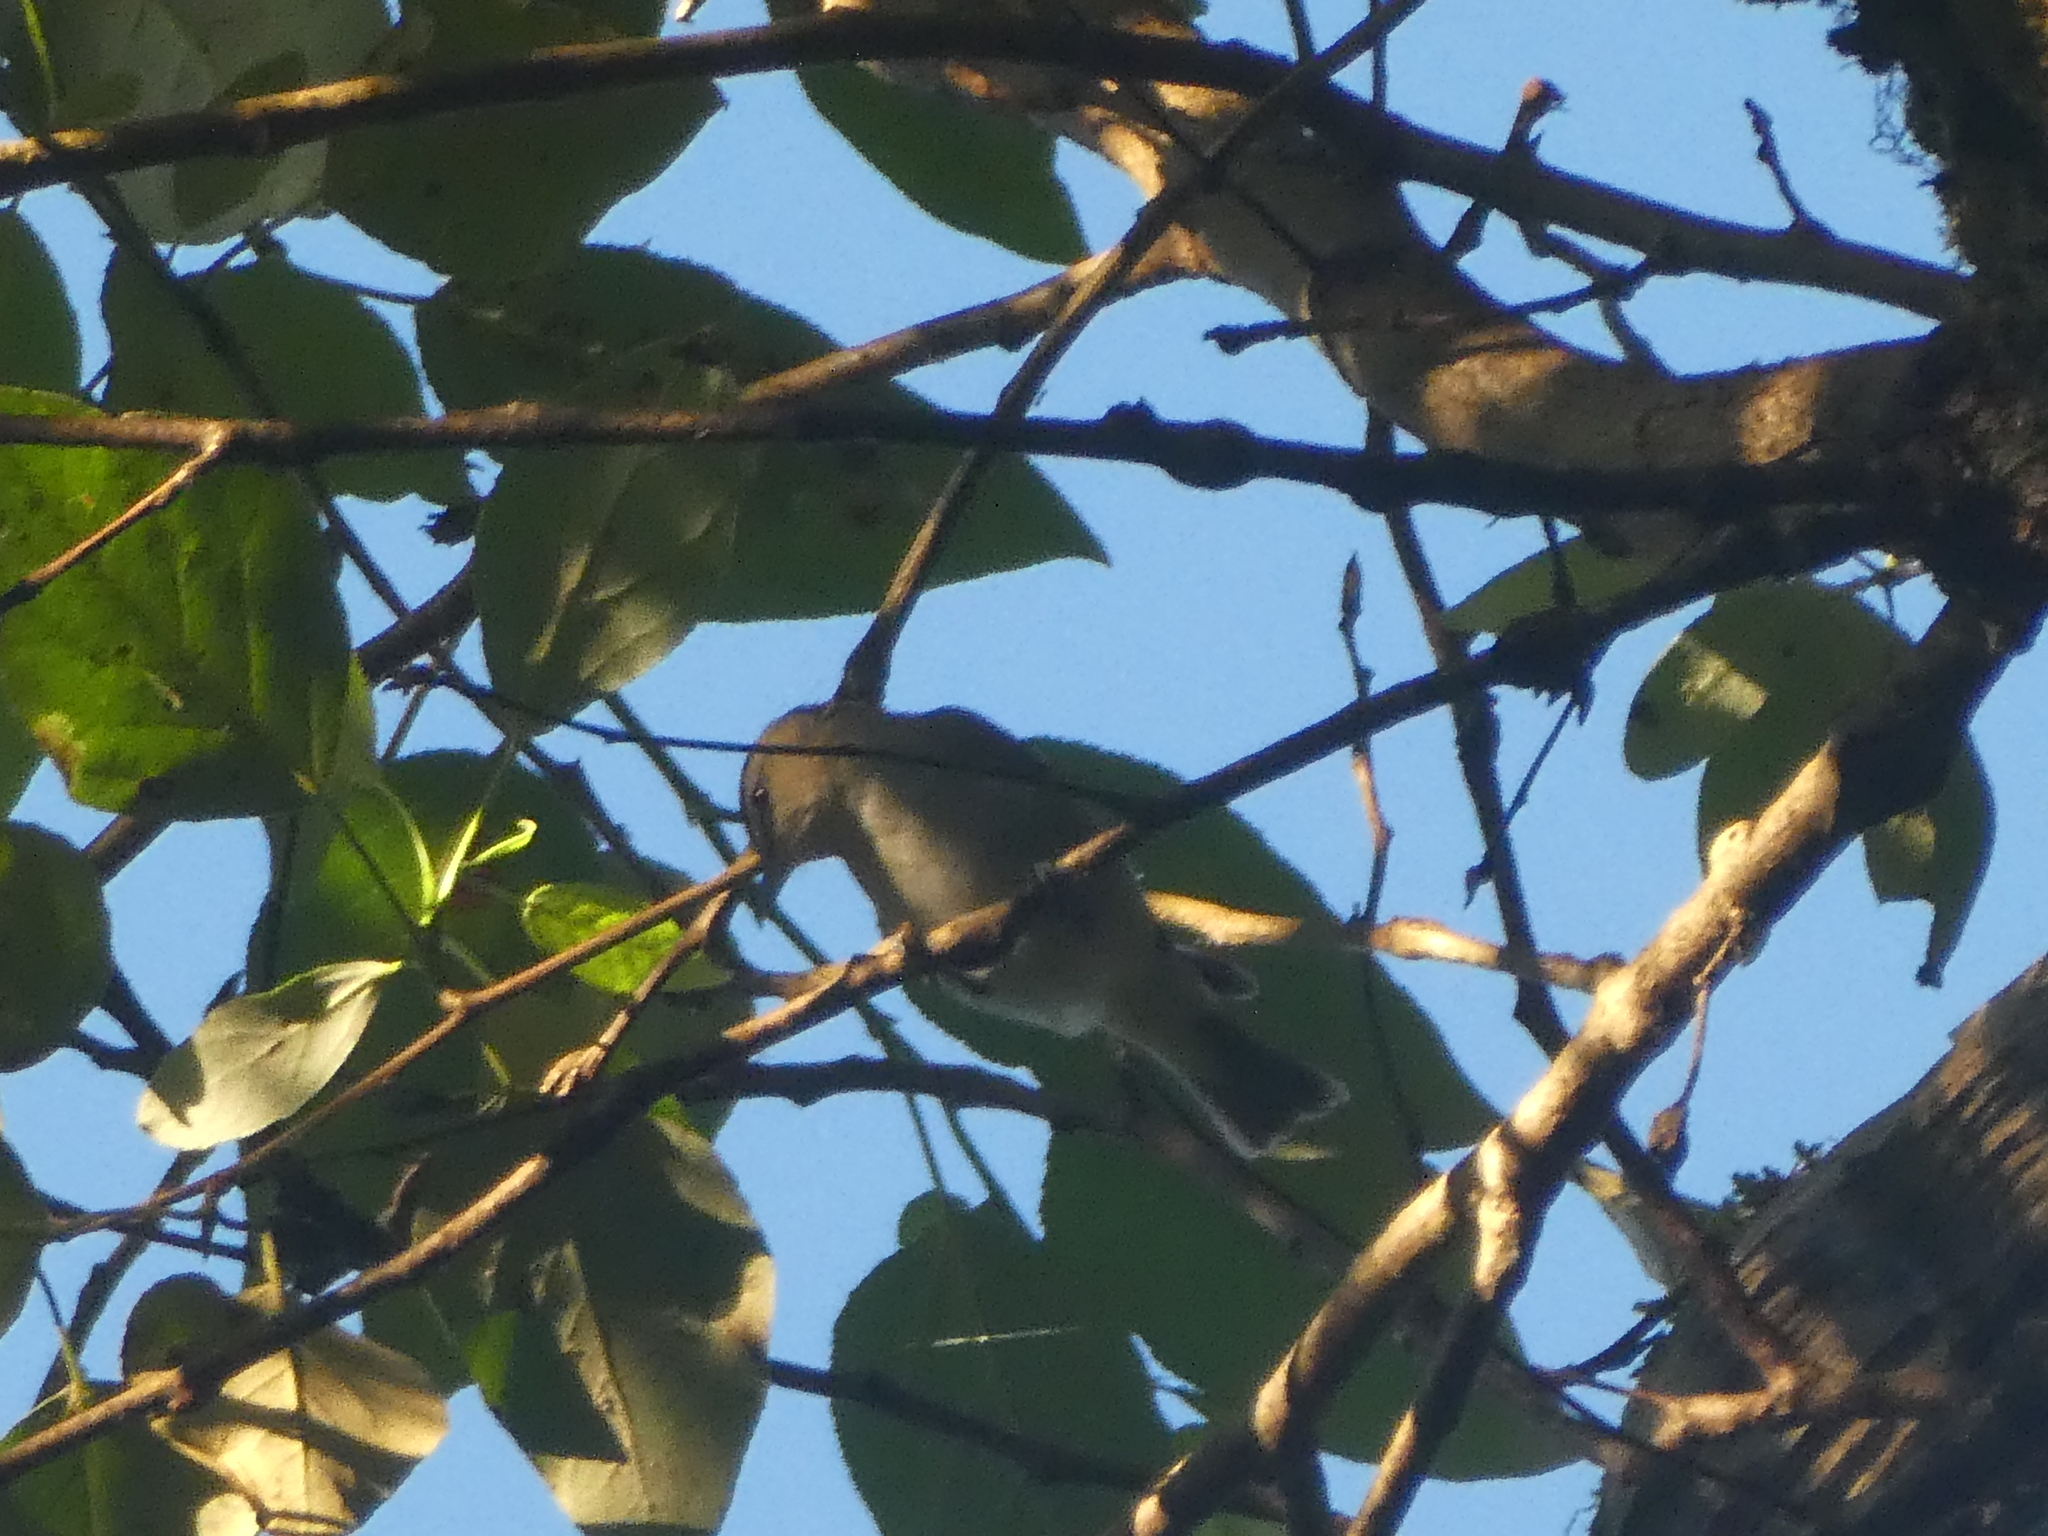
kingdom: Animalia
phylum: Chordata
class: Aves
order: Passeriformes
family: Vireonidae
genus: Vireo
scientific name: Vireo olivaceus
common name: Red-eyed vireo
